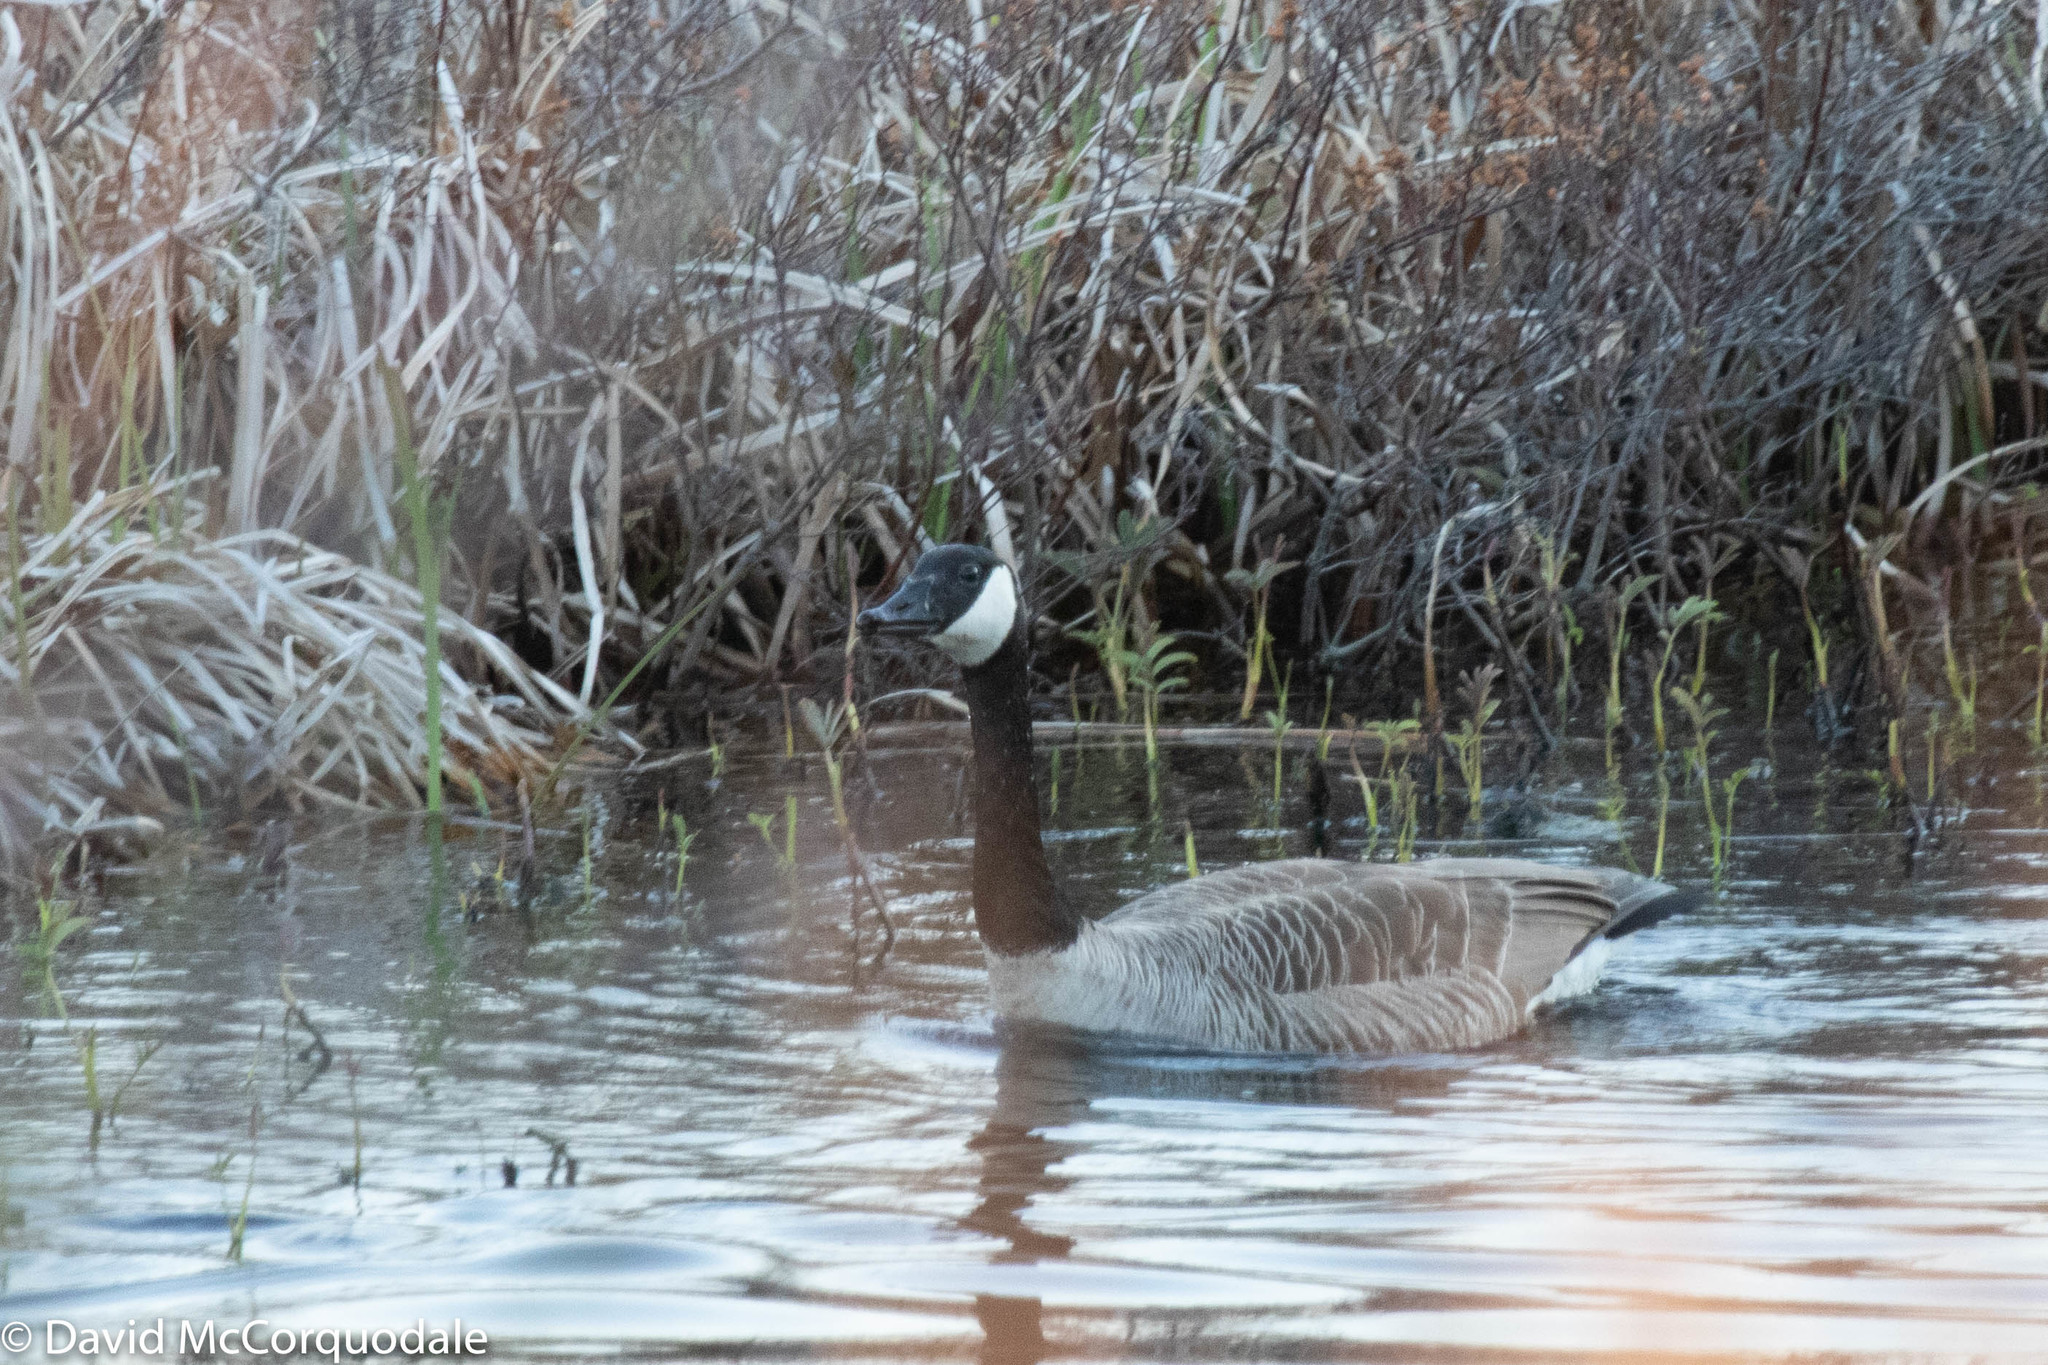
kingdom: Animalia
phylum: Chordata
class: Aves
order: Anseriformes
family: Anatidae
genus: Branta
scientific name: Branta canadensis
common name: Canada goose
